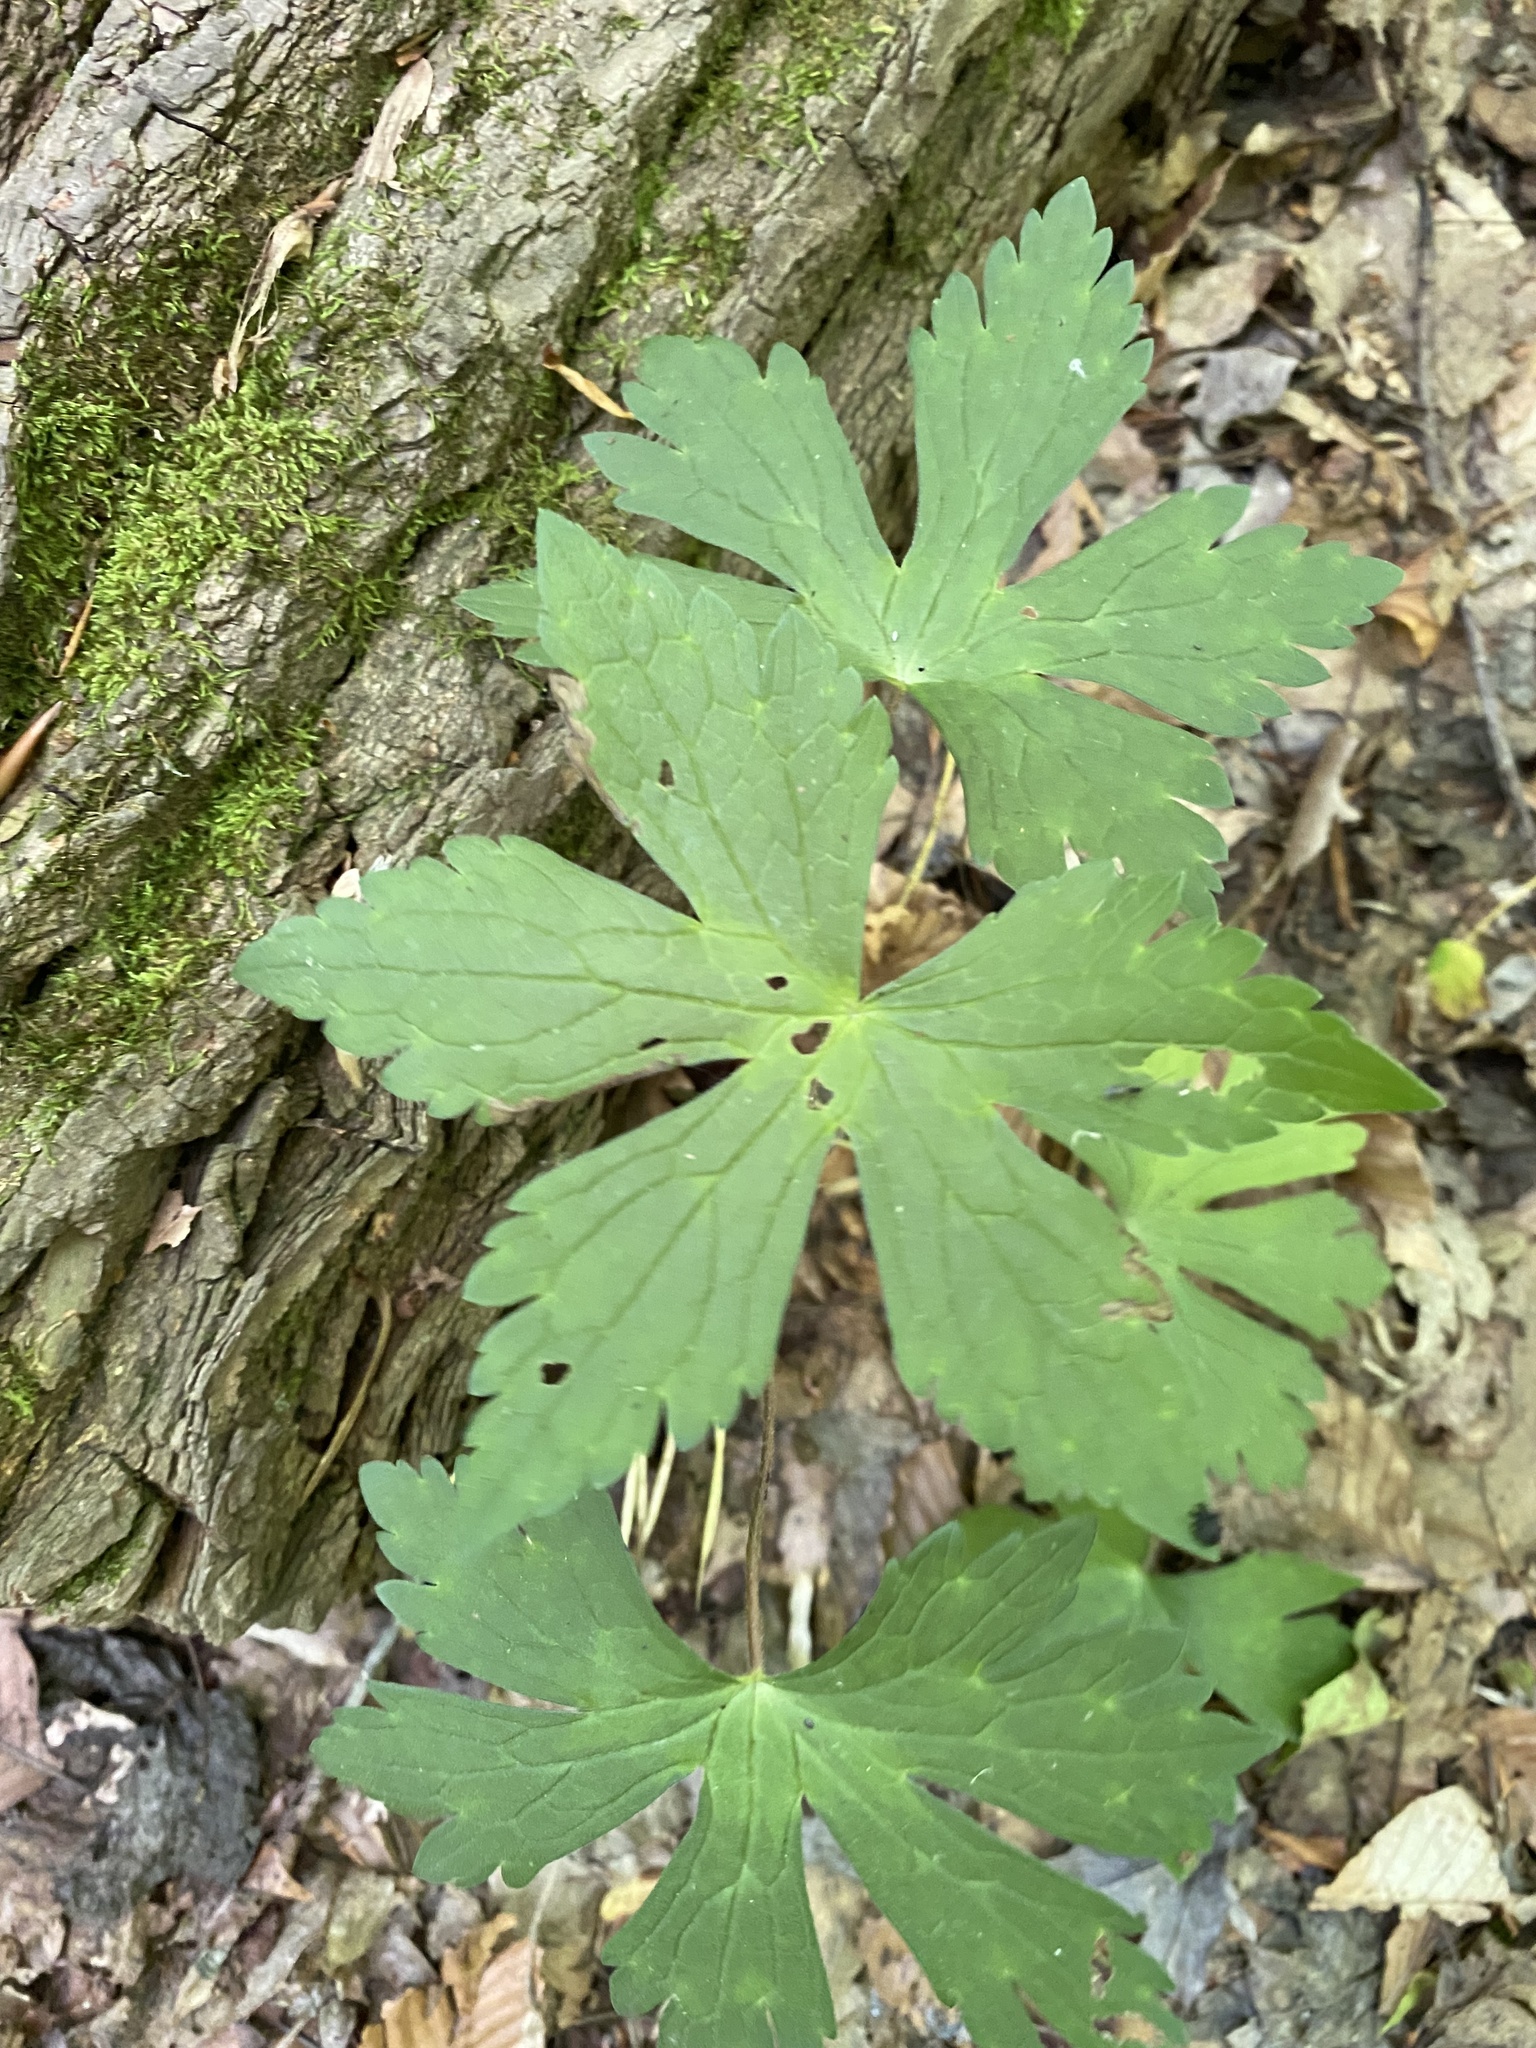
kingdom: Plantae
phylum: Tracheophyta
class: Magnoliopsida
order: Geraniales
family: Geraniaceae
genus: Geranium
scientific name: Geranium maculatum
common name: Spotted geranium
